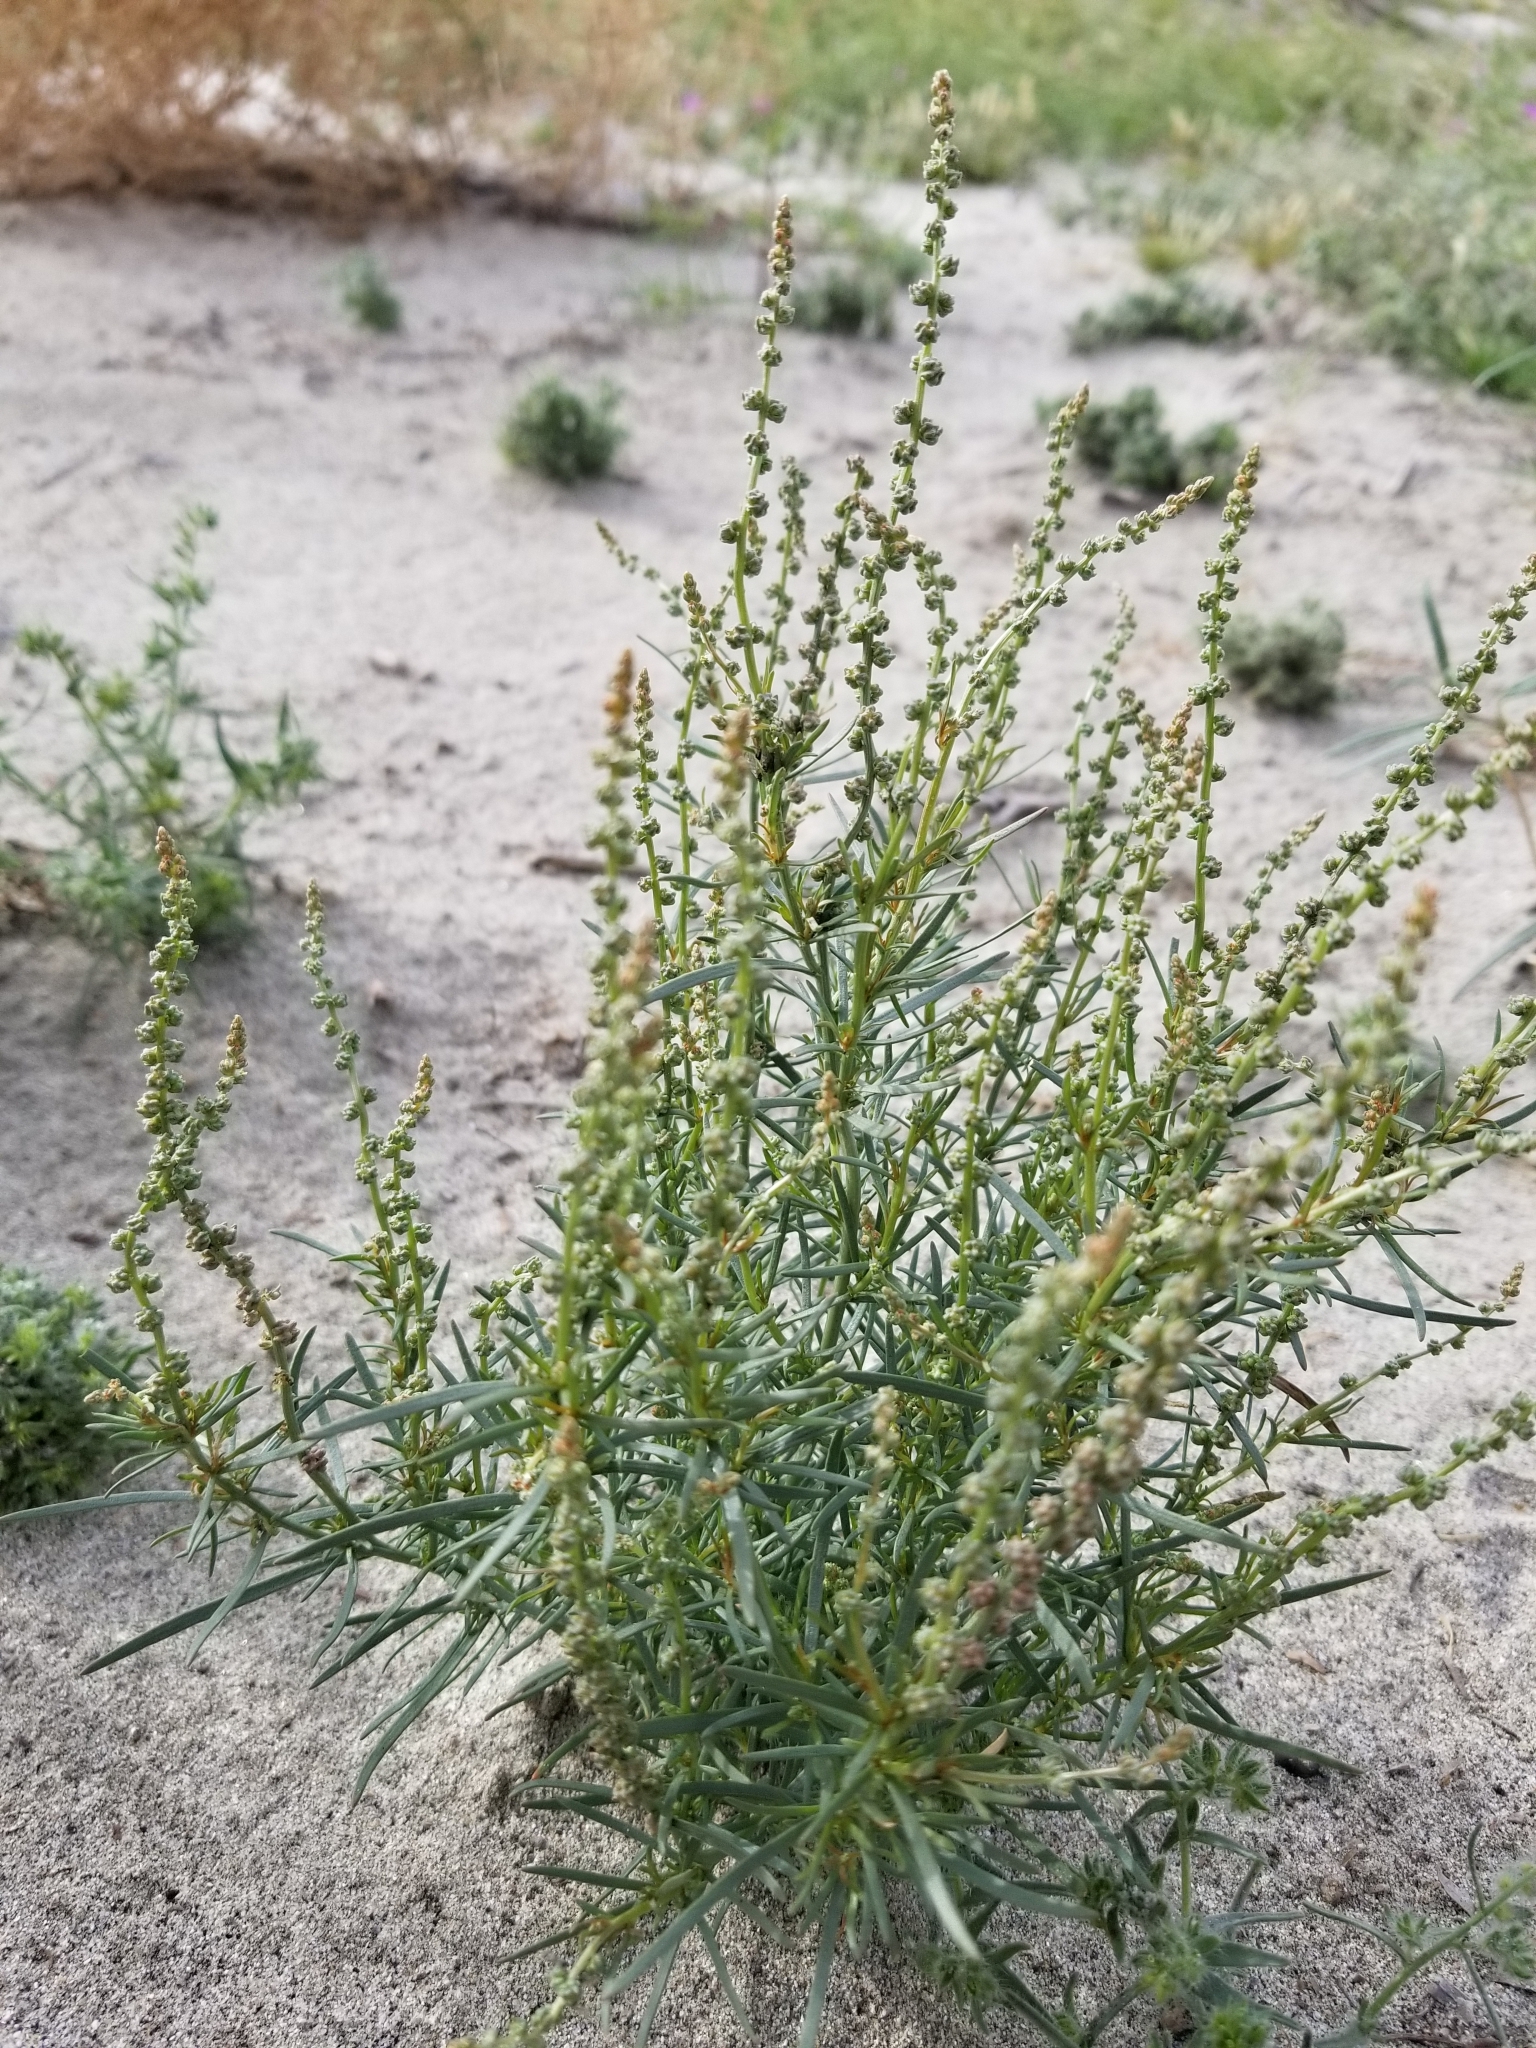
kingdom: Plantae
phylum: Tracheophyta
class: Magnoliopsida
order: Brassicales
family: Resedaceae
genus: Oligomeris
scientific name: Oligomeris linifolia
